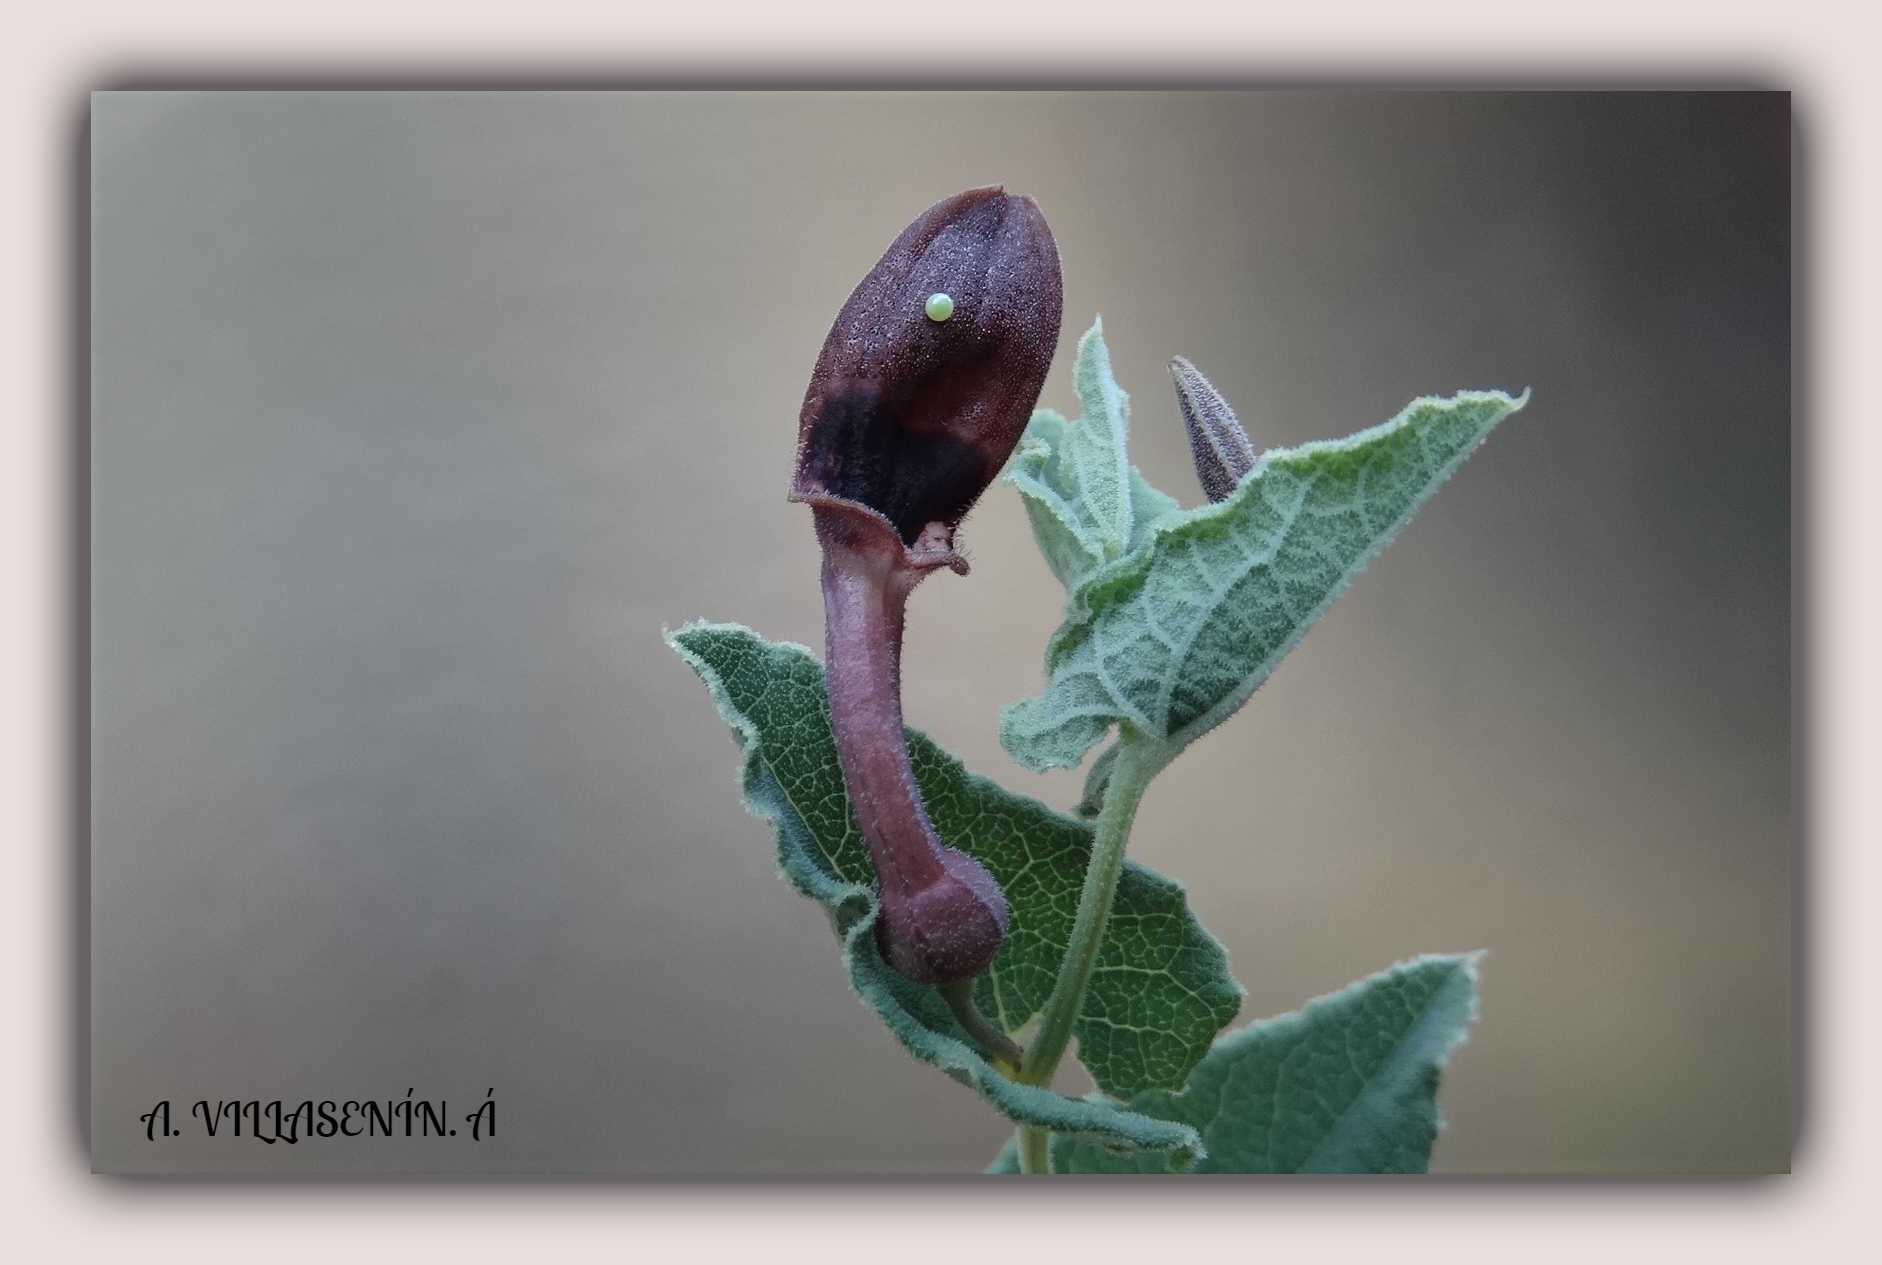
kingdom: Animalia
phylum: Arthropoda
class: Insecta
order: Lepidoptera
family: Papilionidae
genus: Zerynthia
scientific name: Zerynthia rumina
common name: Spanish festoon
